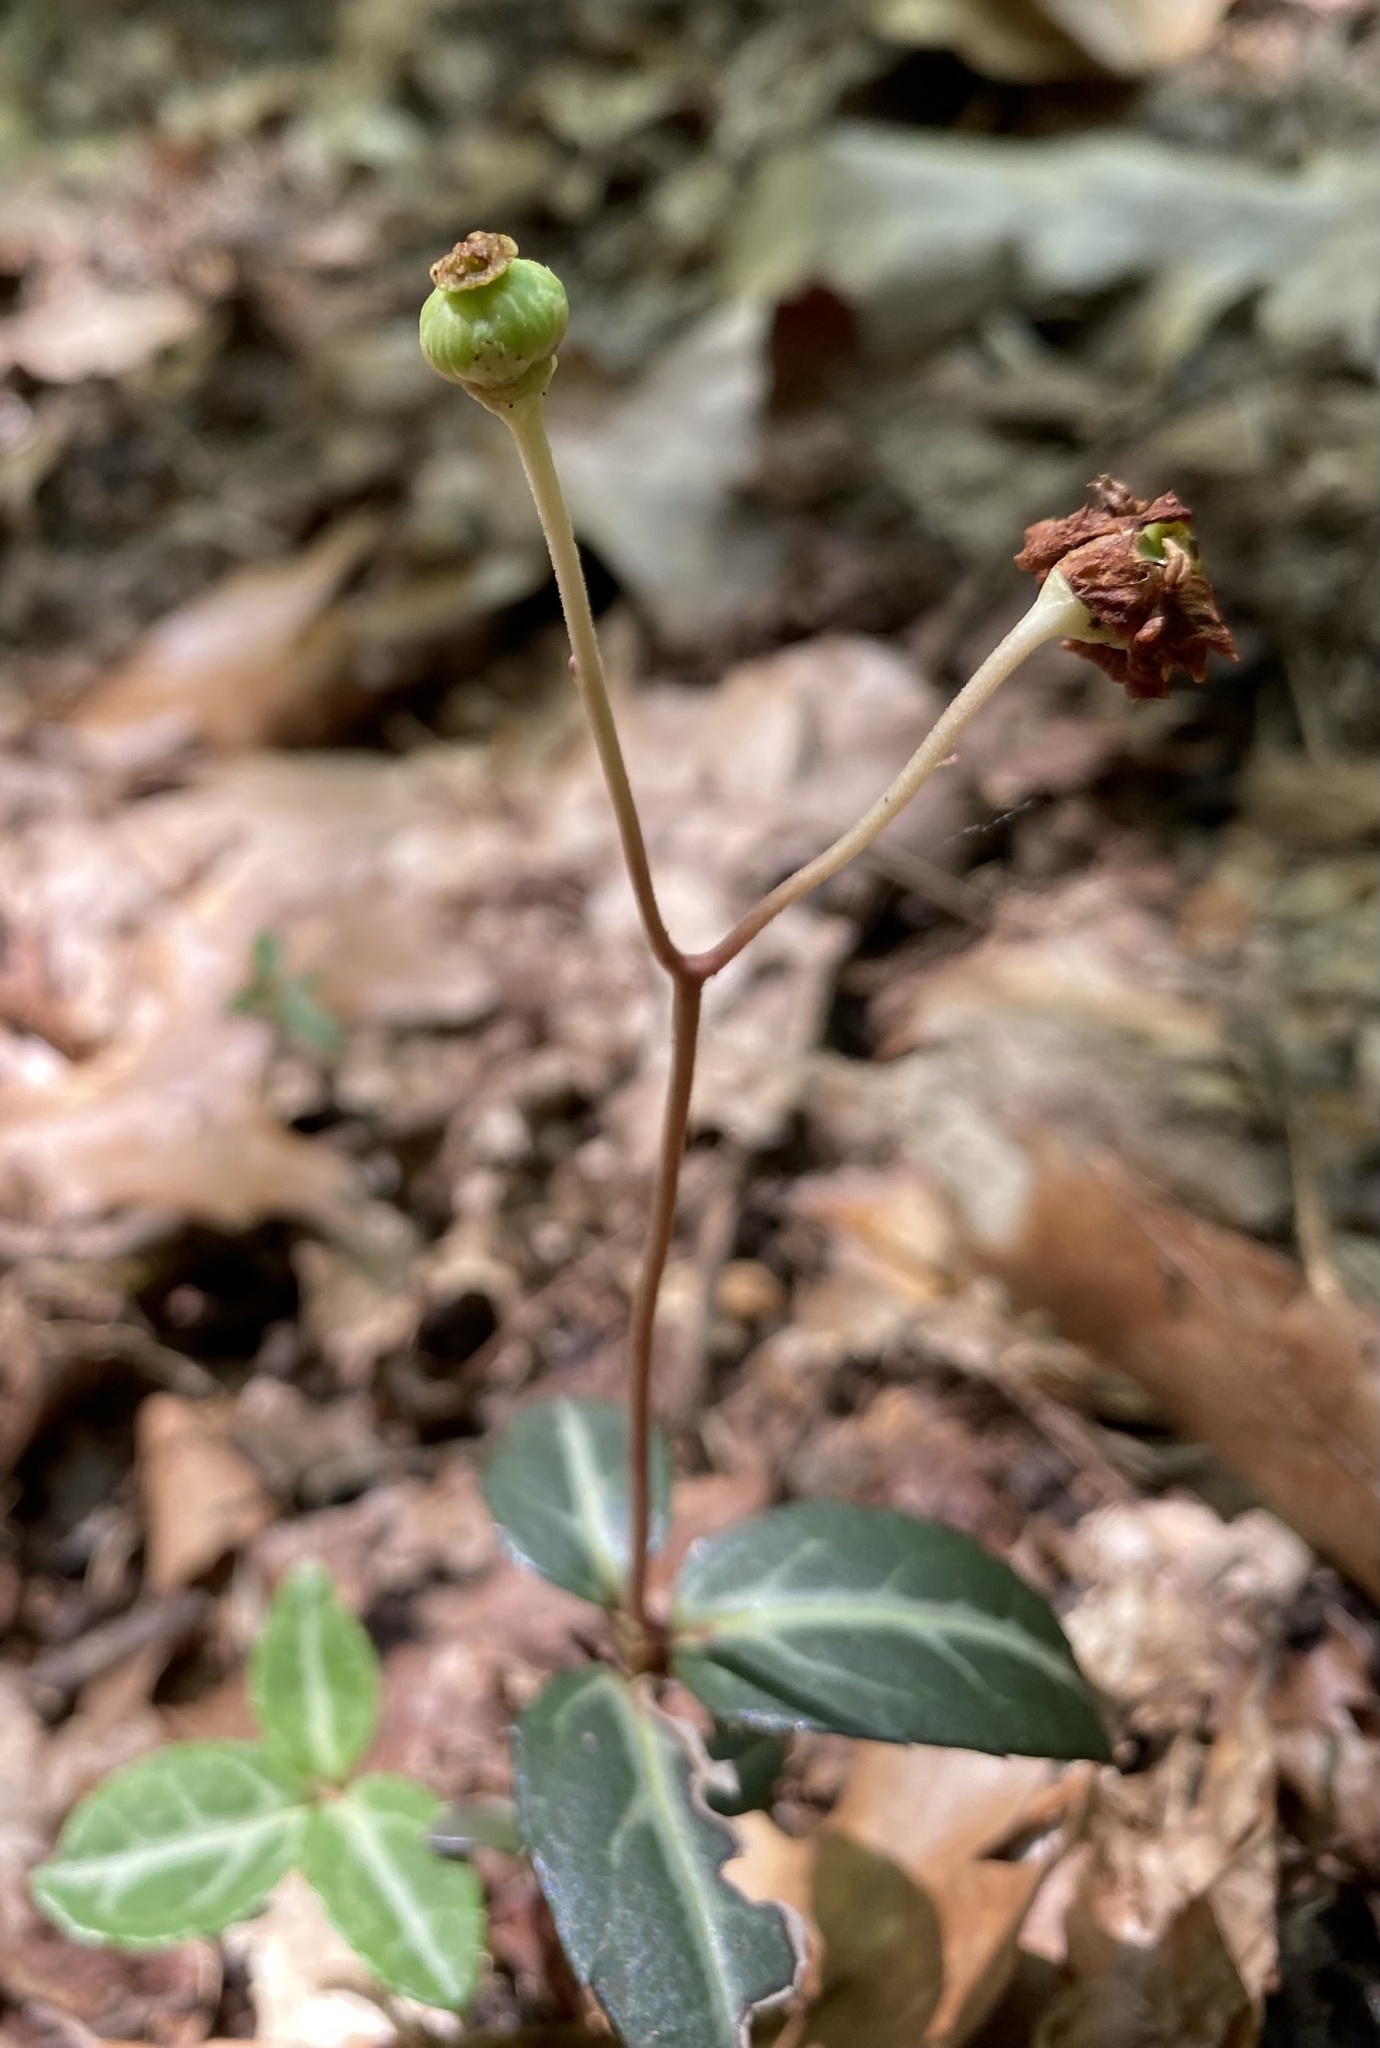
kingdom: Plantae
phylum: Tracheophyta
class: Magnoliopsida
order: Ericales
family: Ericaceae
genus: Chimaphila
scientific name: Chimaphila maculata
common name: Spotted pipsissewa
